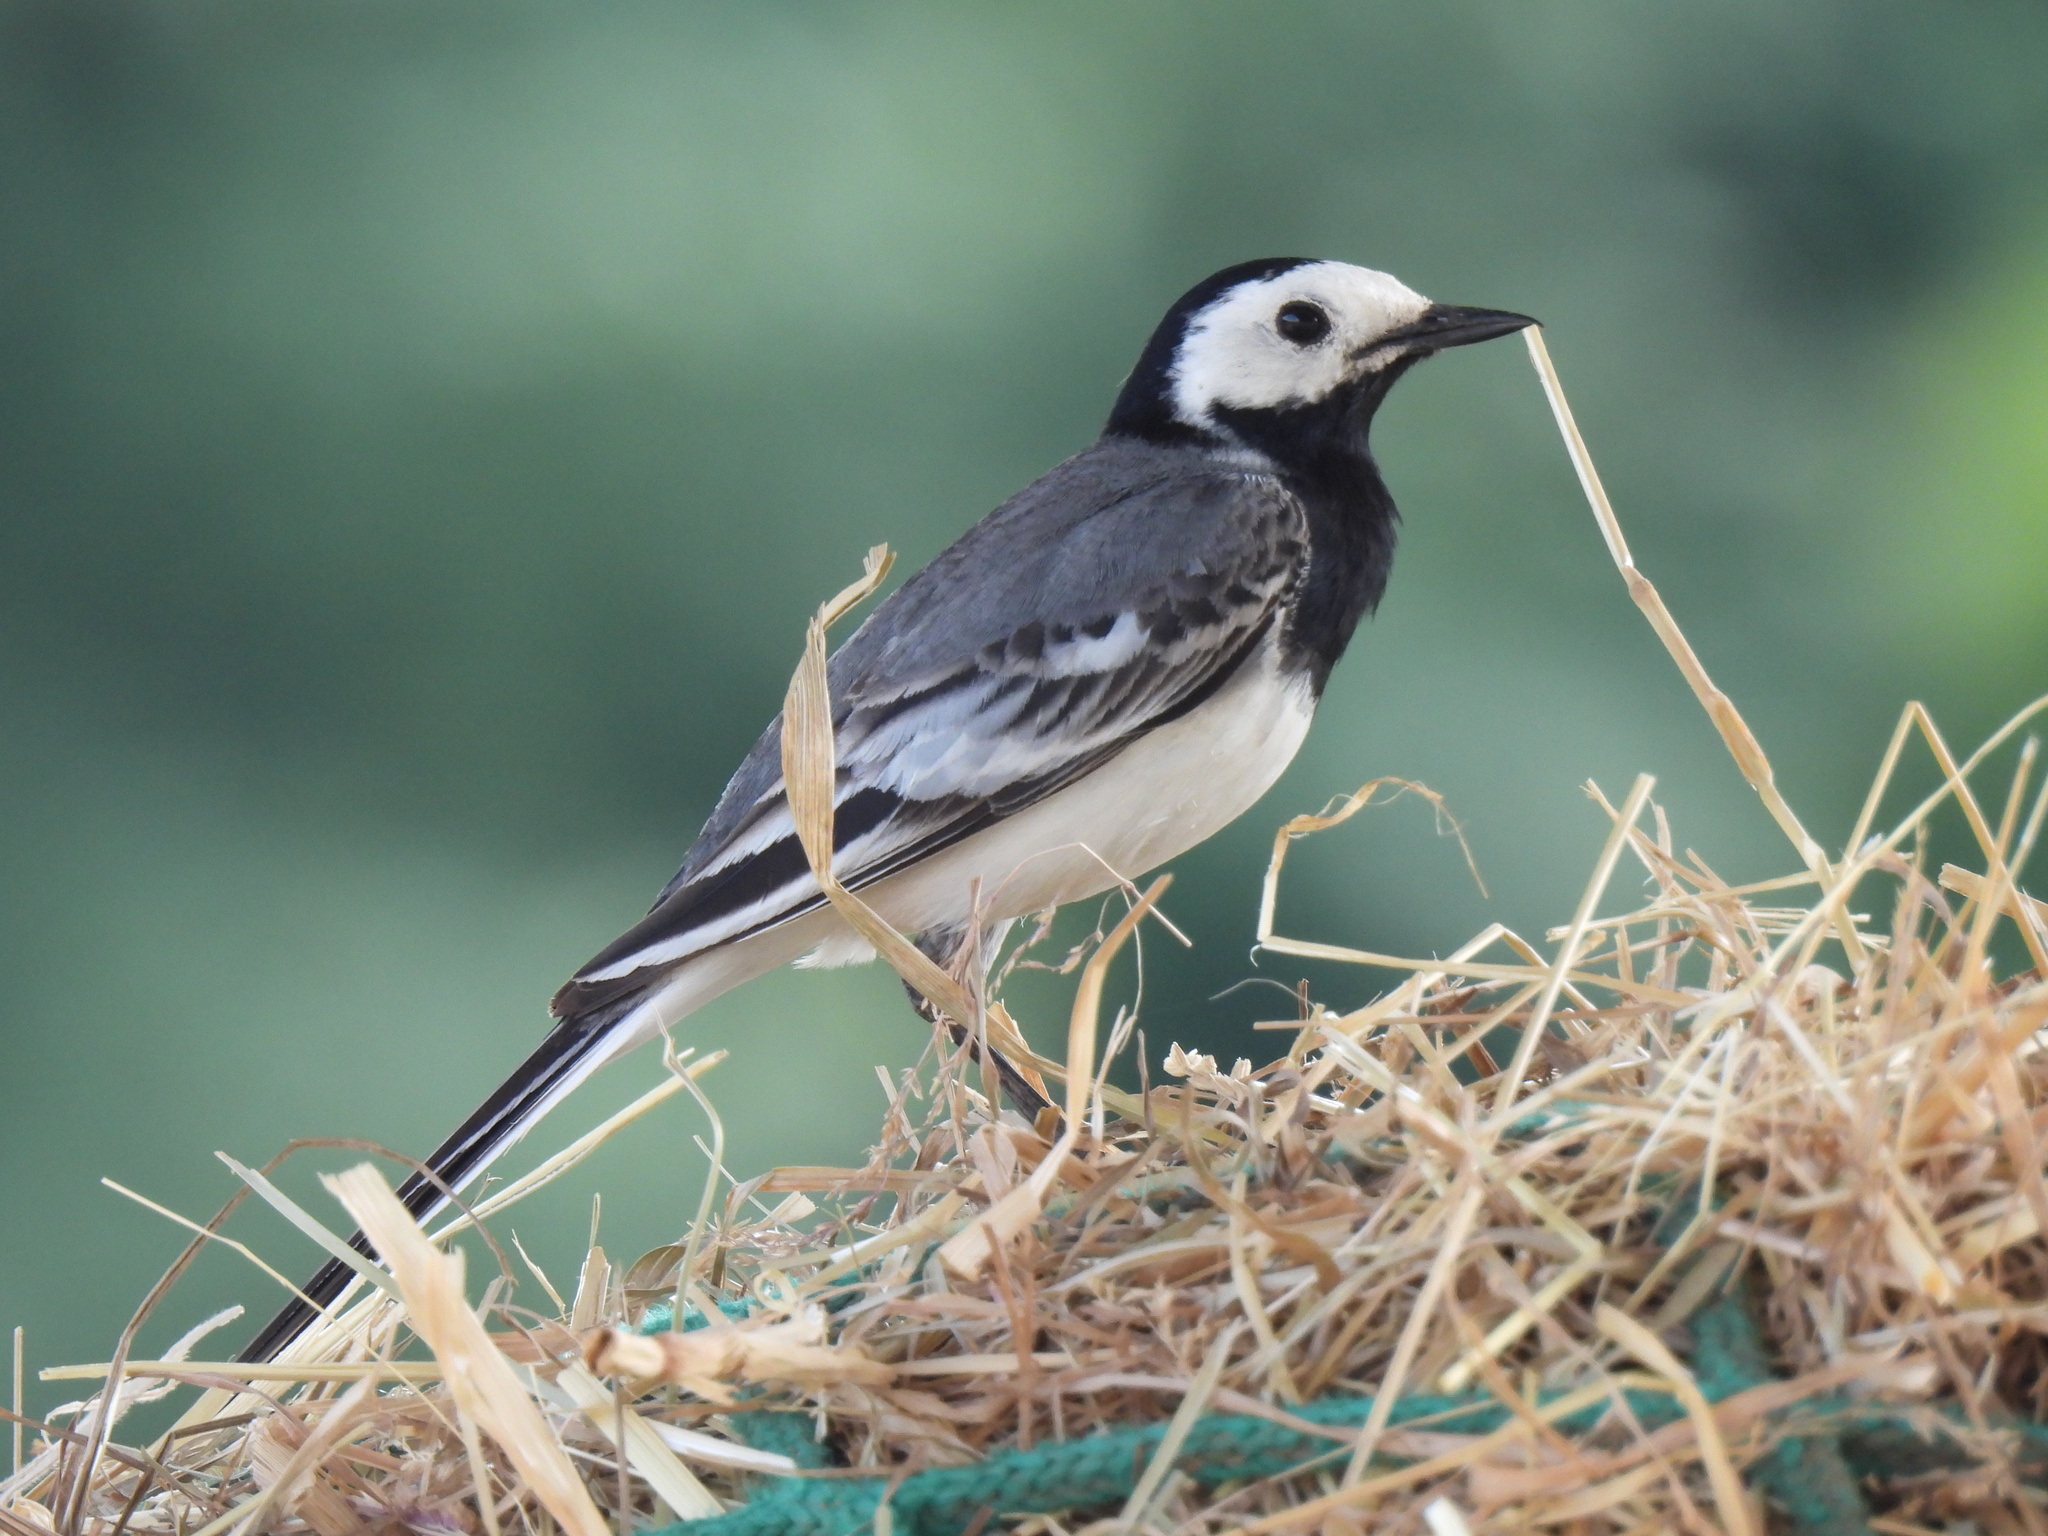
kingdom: Animalia
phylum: Chordata
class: Aves
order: Passeriformes
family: Motacillidae
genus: Motacilla
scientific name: Motacilla alba
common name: White wagtail
